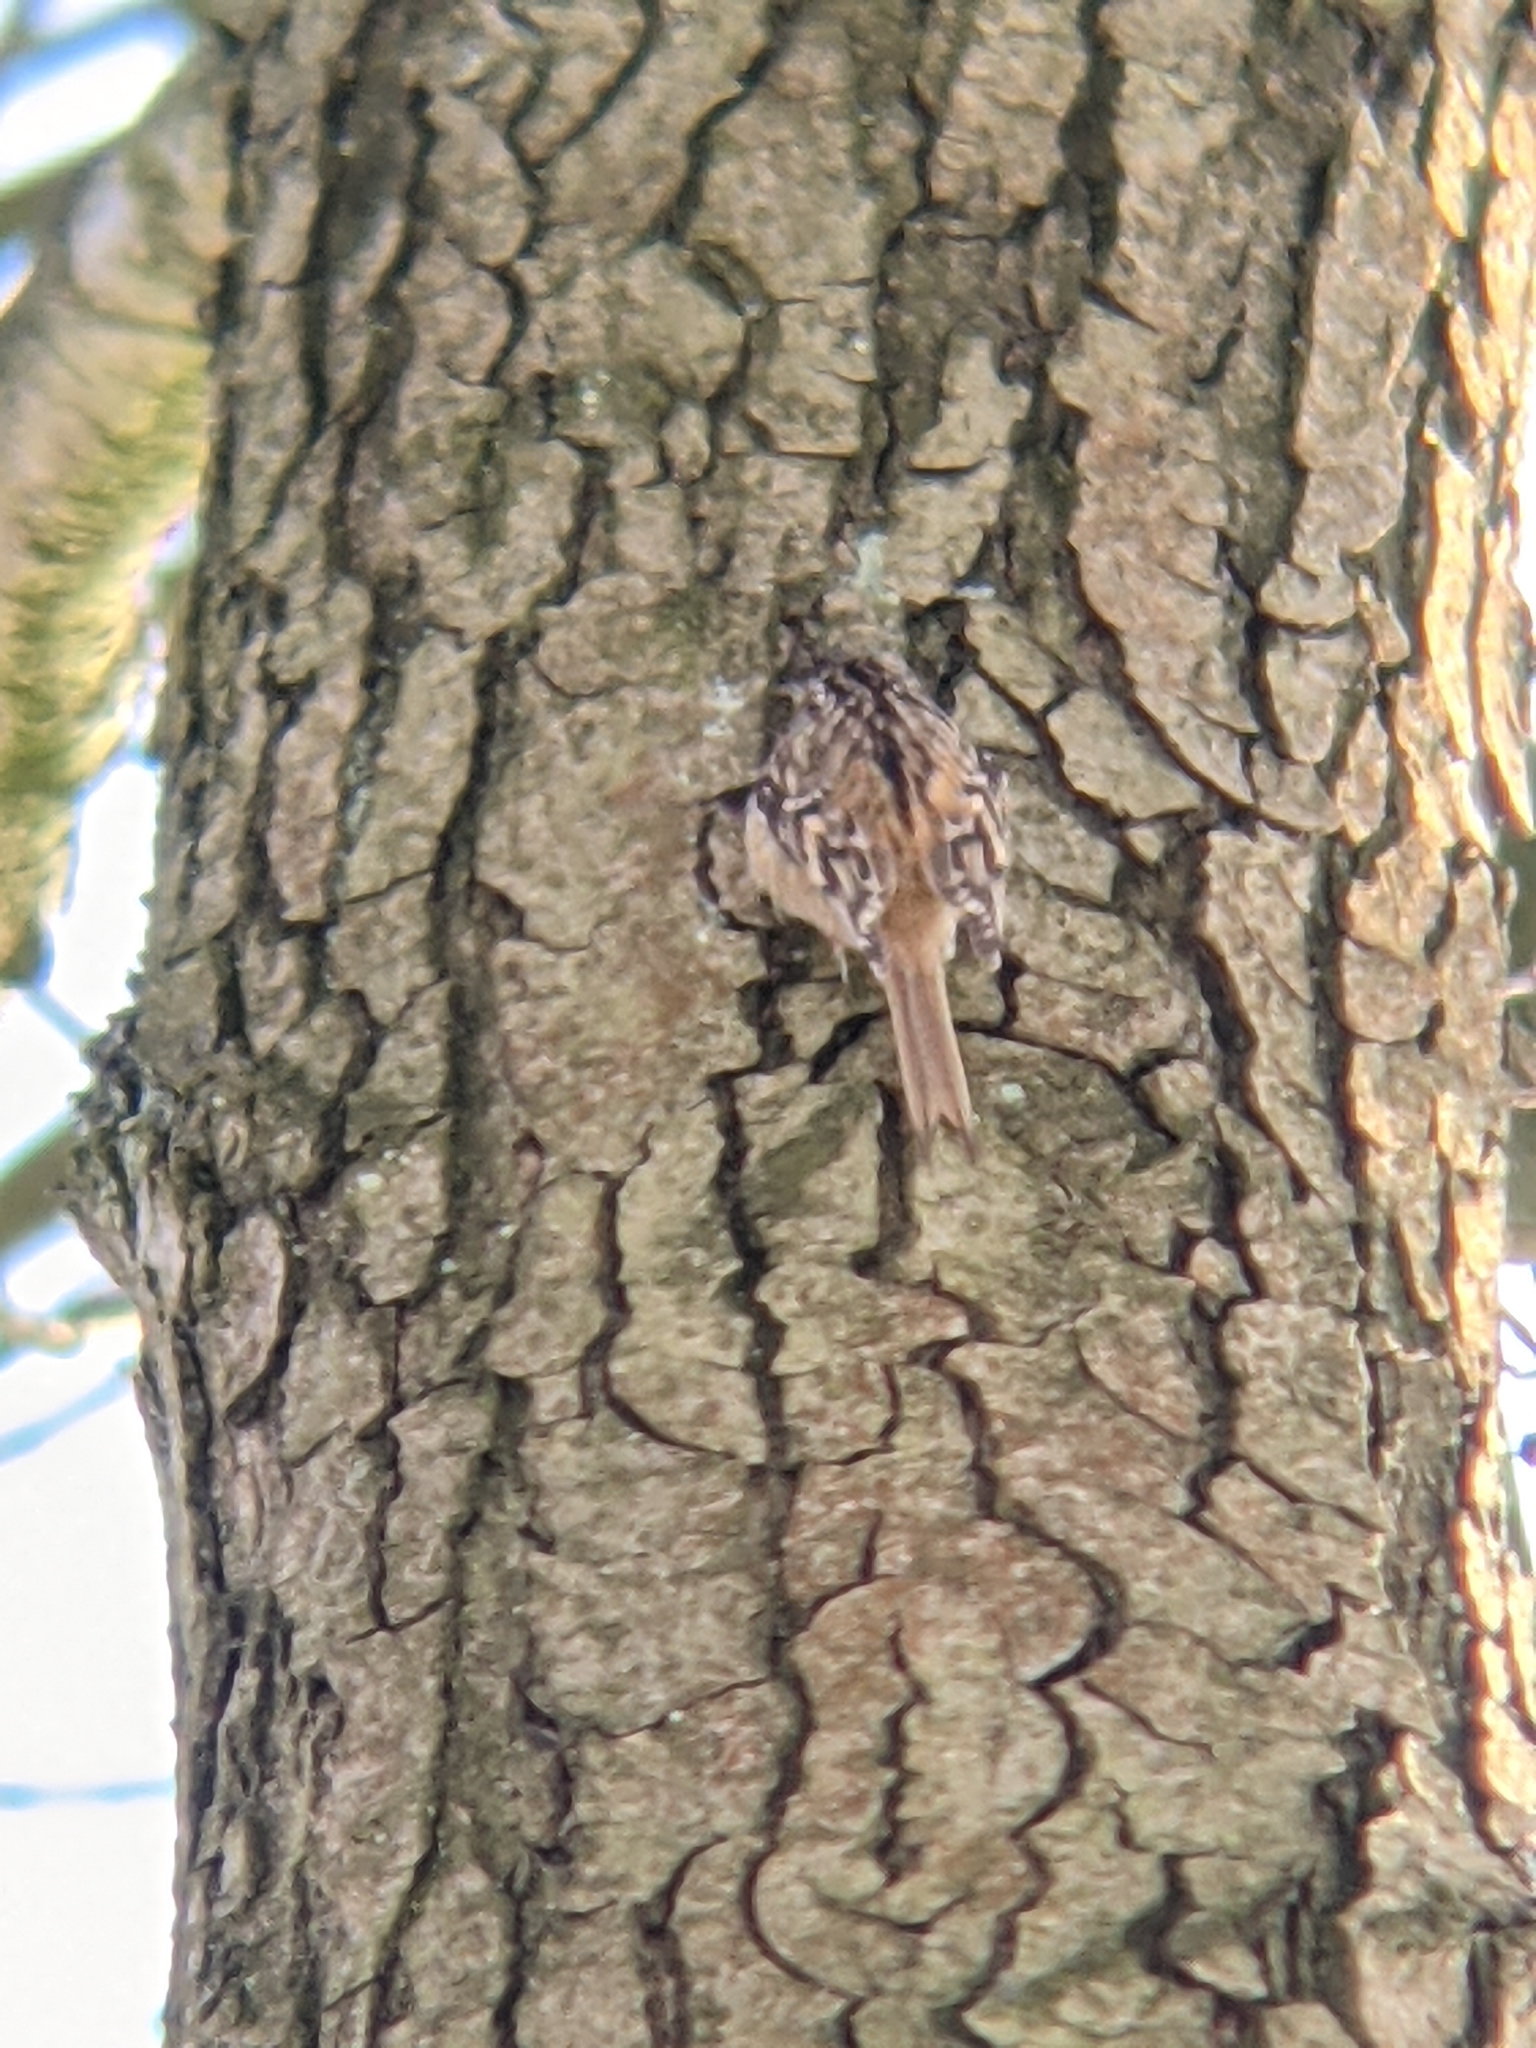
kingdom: Animalia
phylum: Chordata
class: Aves
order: Passeriformes
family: Certhiidae
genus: Certhia
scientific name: Certhia familiaris
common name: Eurasian treecreeper
